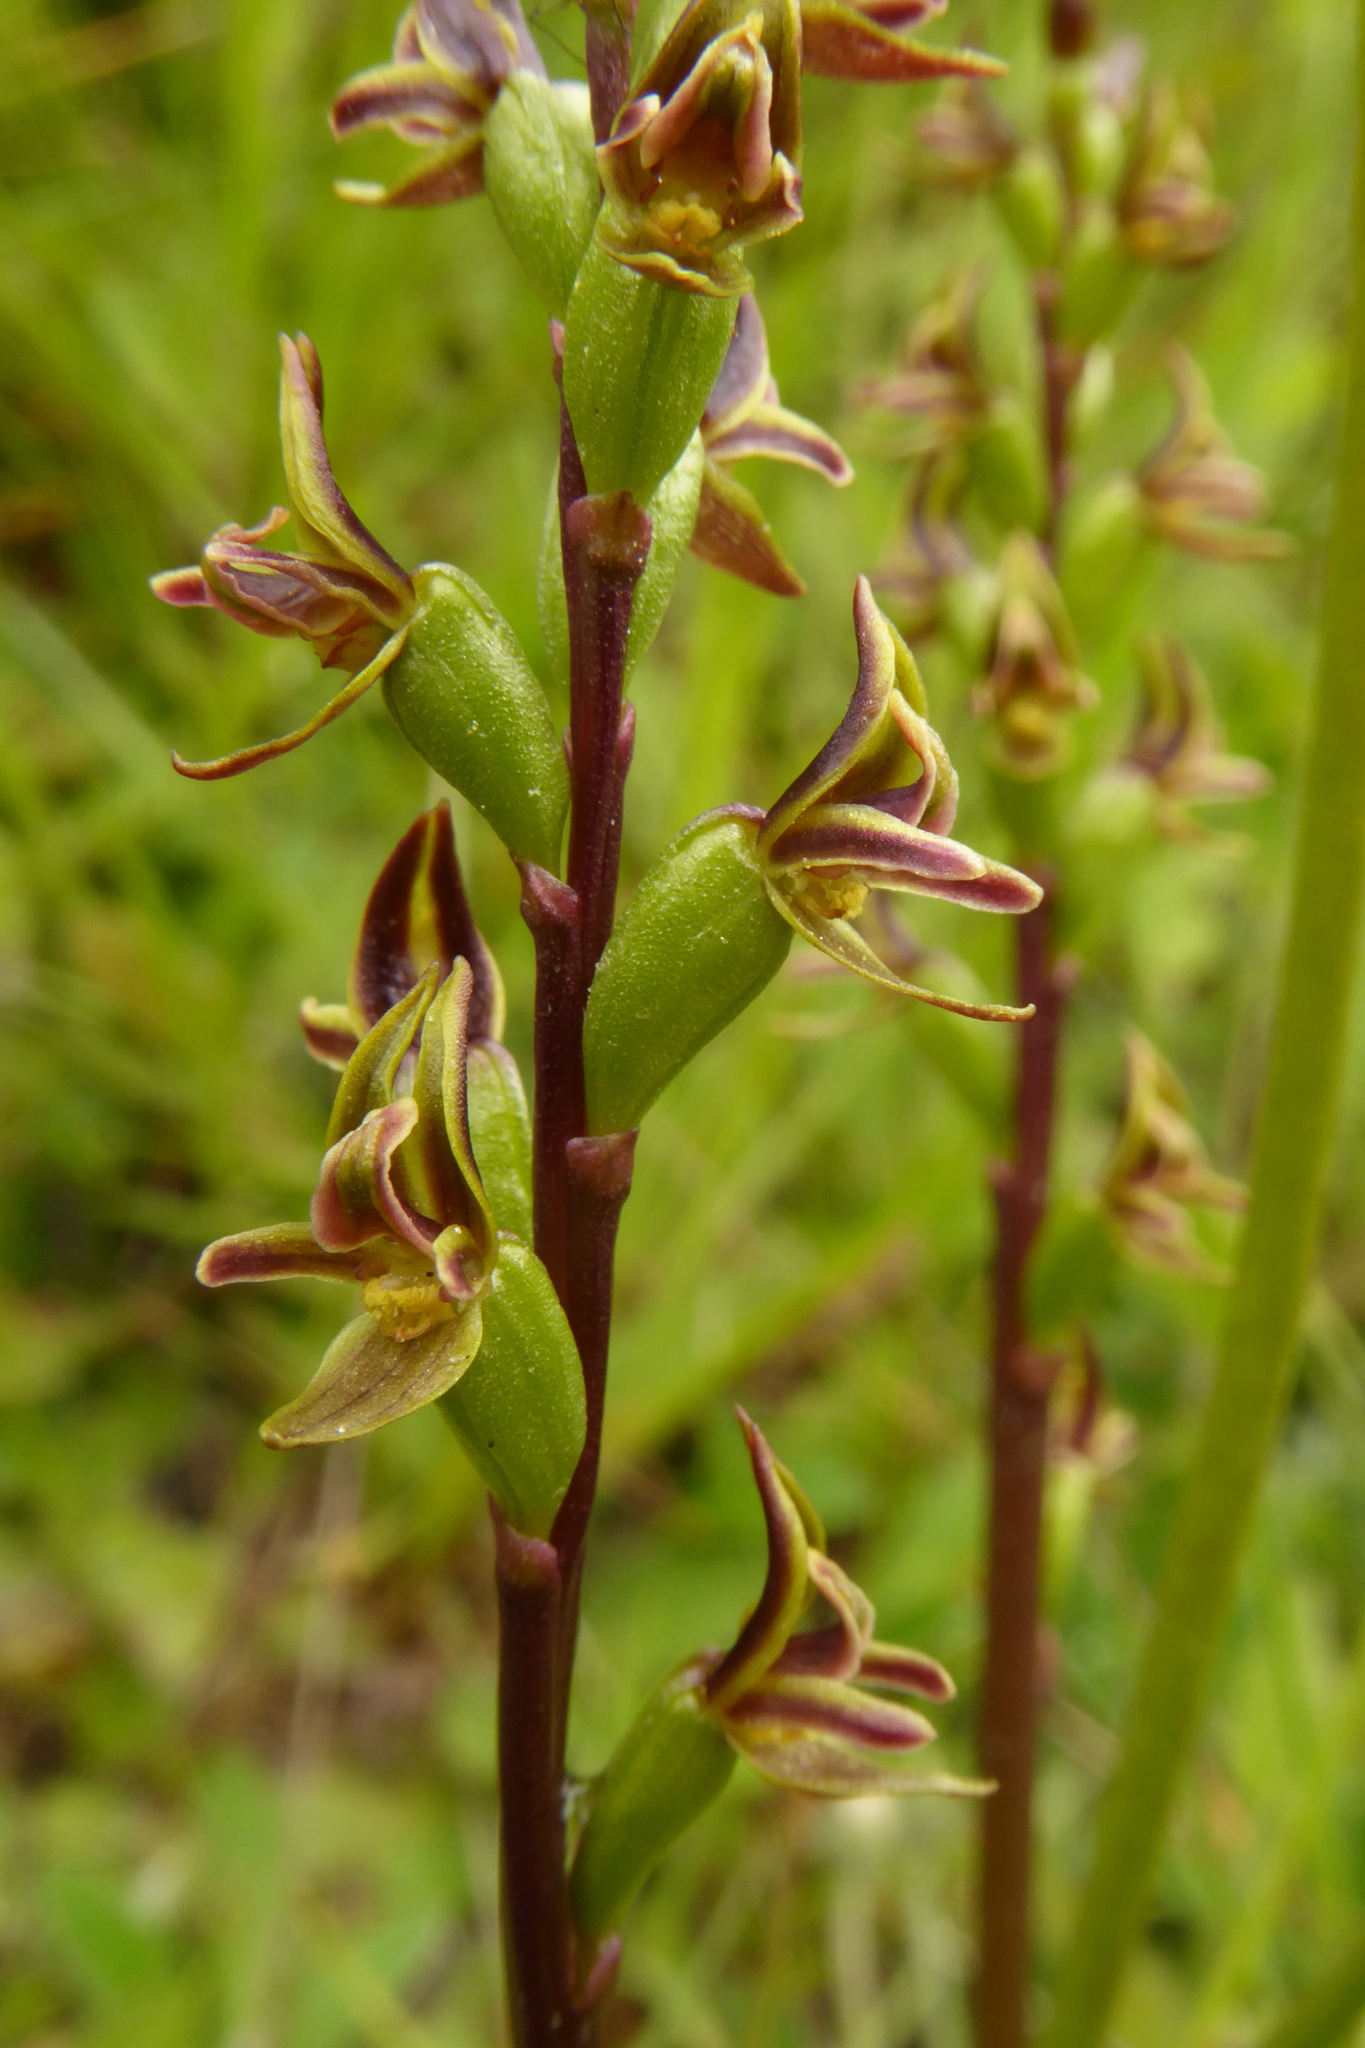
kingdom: Plantae
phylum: Tracheophyta
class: Liliopsida
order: Asparagales
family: Orchidaceae
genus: Prasophyllum
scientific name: Prasophyllum colensoi
